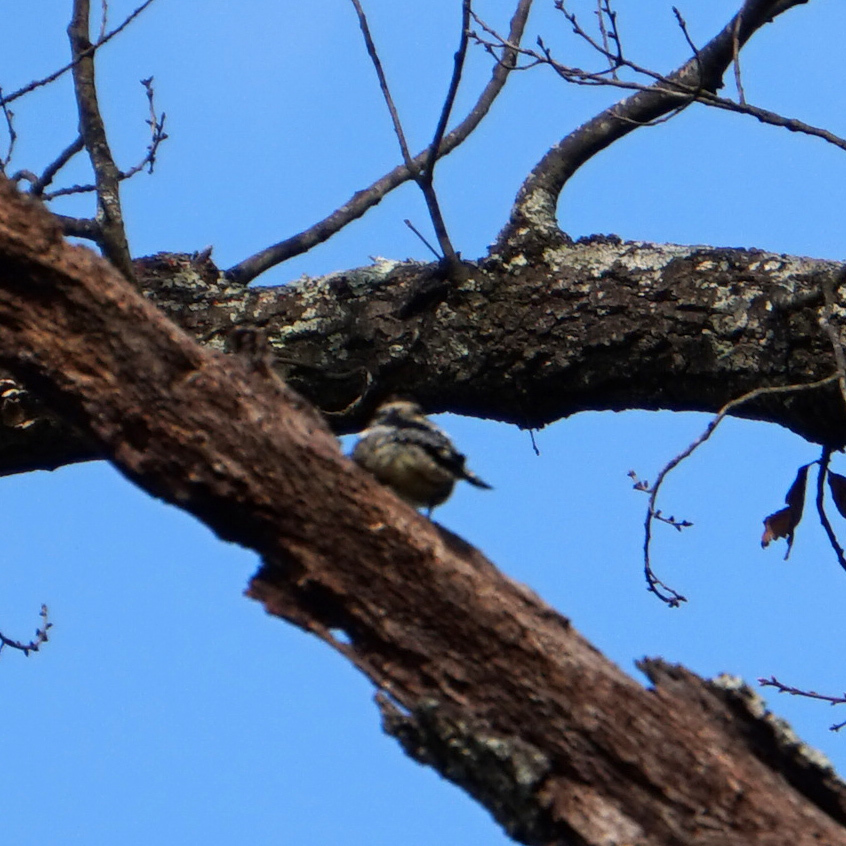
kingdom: Animalia
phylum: Chordata
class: Aves
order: Piciformes
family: Picidae
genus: Sphyrapicus
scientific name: Sphyrapicus varius
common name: Yellow-bellied sapsucker
